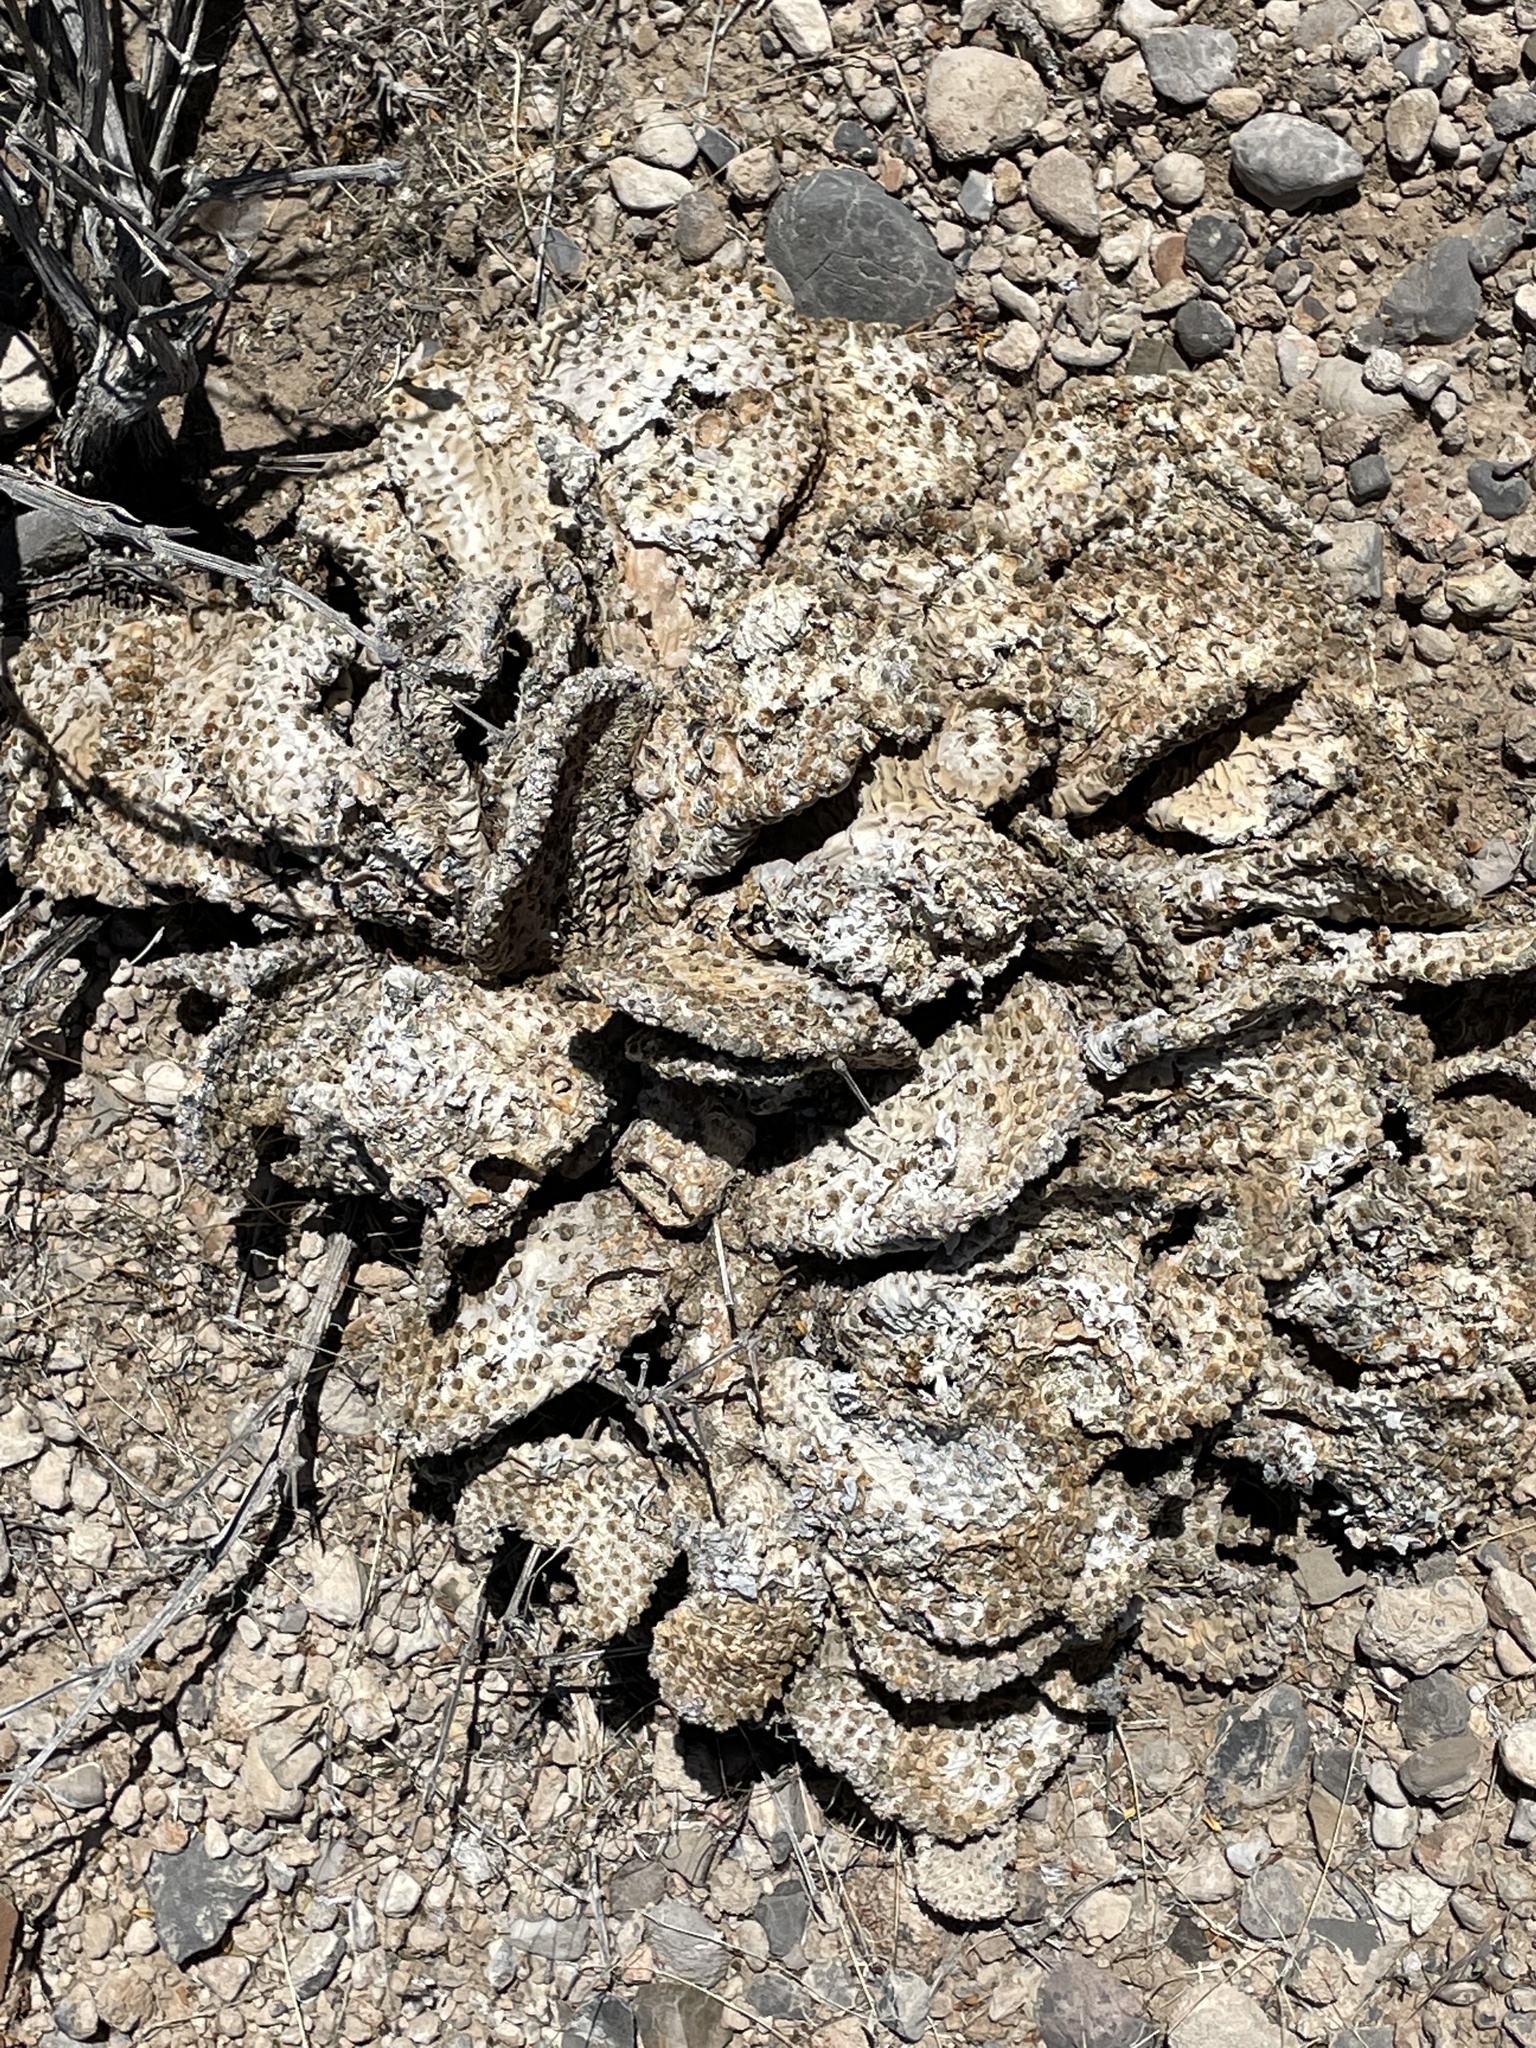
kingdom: Plantae
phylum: Tracheophyta
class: Magnoliopsida
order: Caryophyllales
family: Cactaceae
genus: Opuntia
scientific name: Opuntia basilaris
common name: Beavertail prickly-pear
